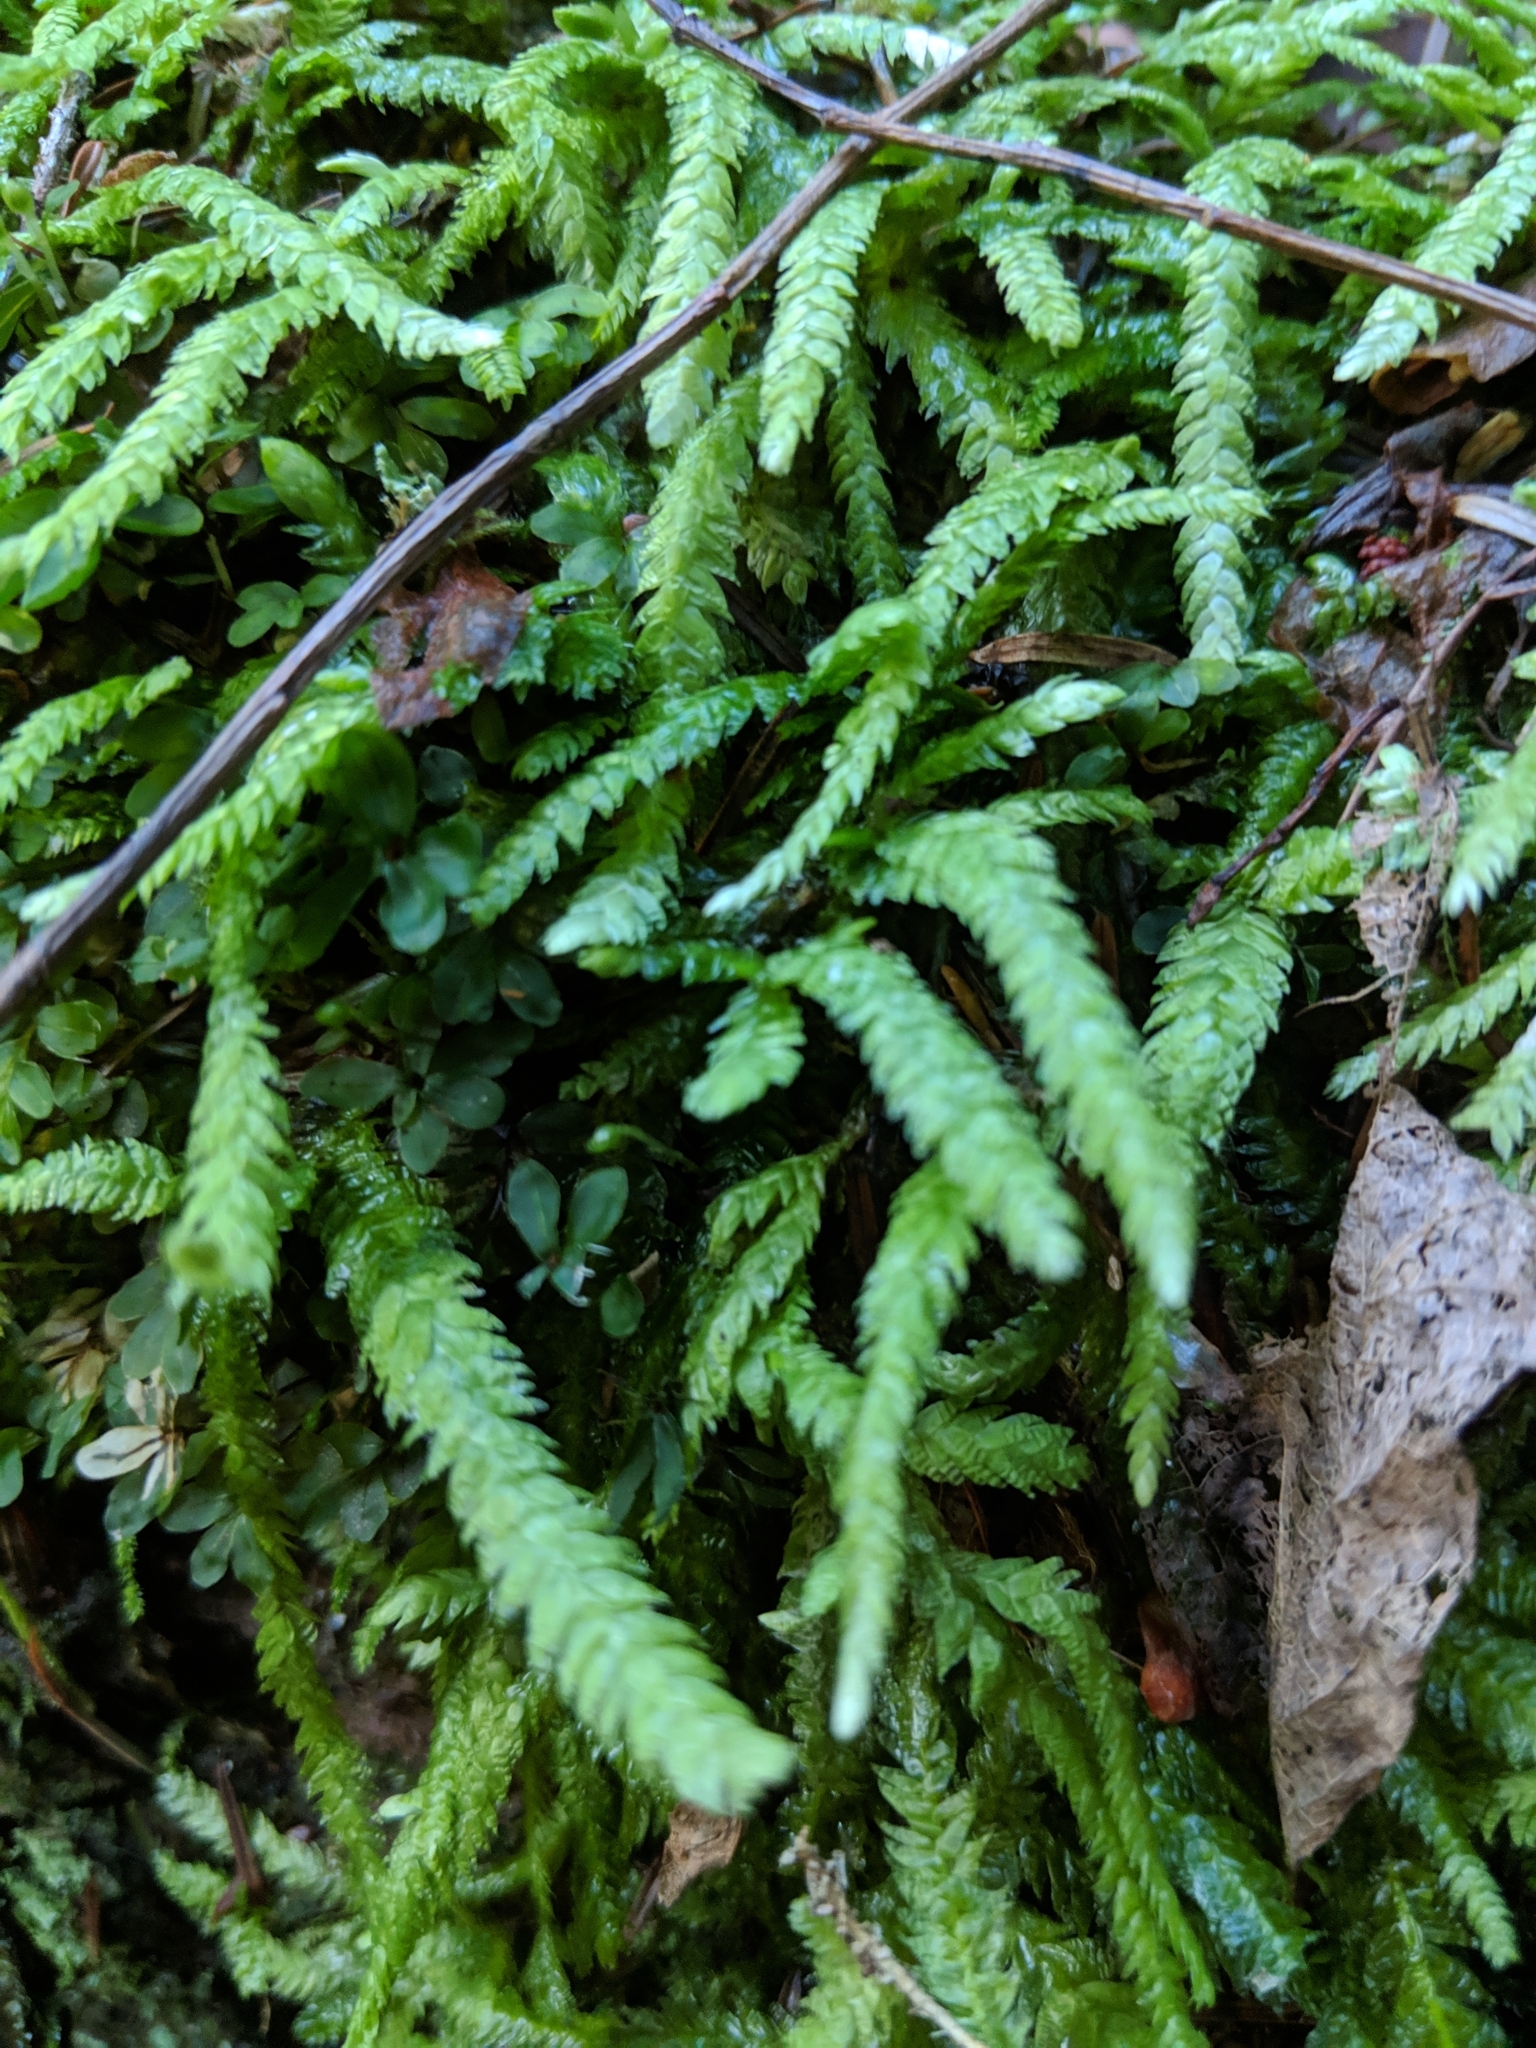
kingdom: Plantae
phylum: Bryophyta
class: Bryopsida
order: Hypnales
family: Plagiotheciaceae
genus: Plagiothecium
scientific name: Plagiothecium undulatum
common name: Waved silk-moss
